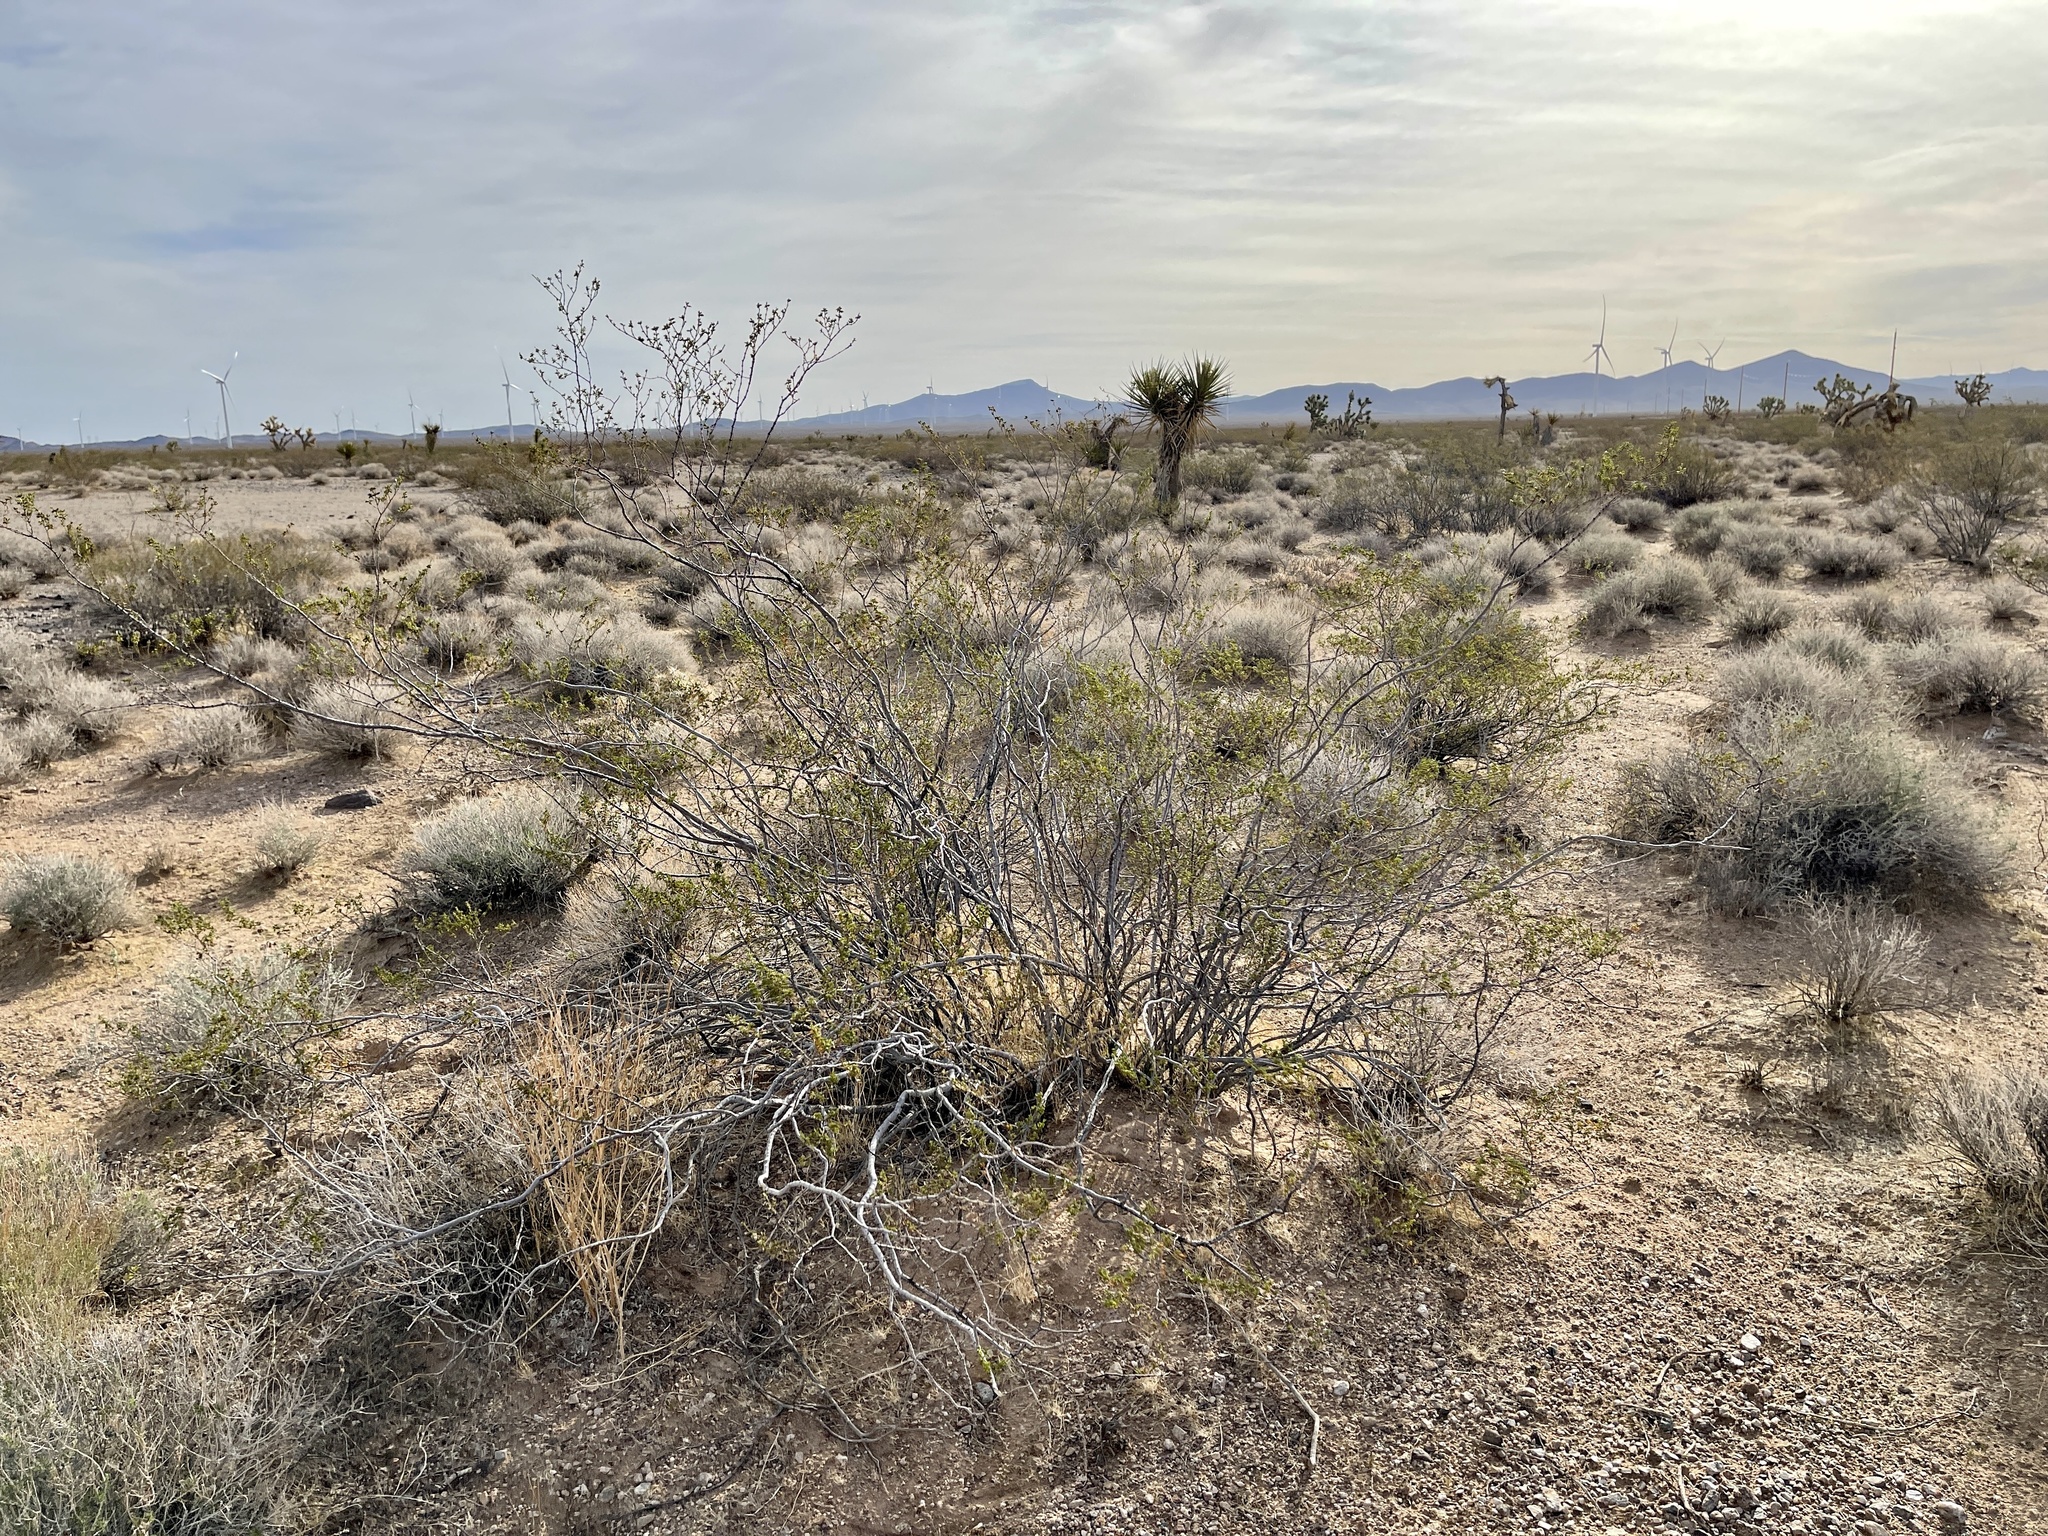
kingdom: Plantae
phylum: Tracheophyta
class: Magnoliopsida
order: Zygophyllales
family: Zygophyllaceae
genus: Larrea
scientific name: Larrea tridentata
